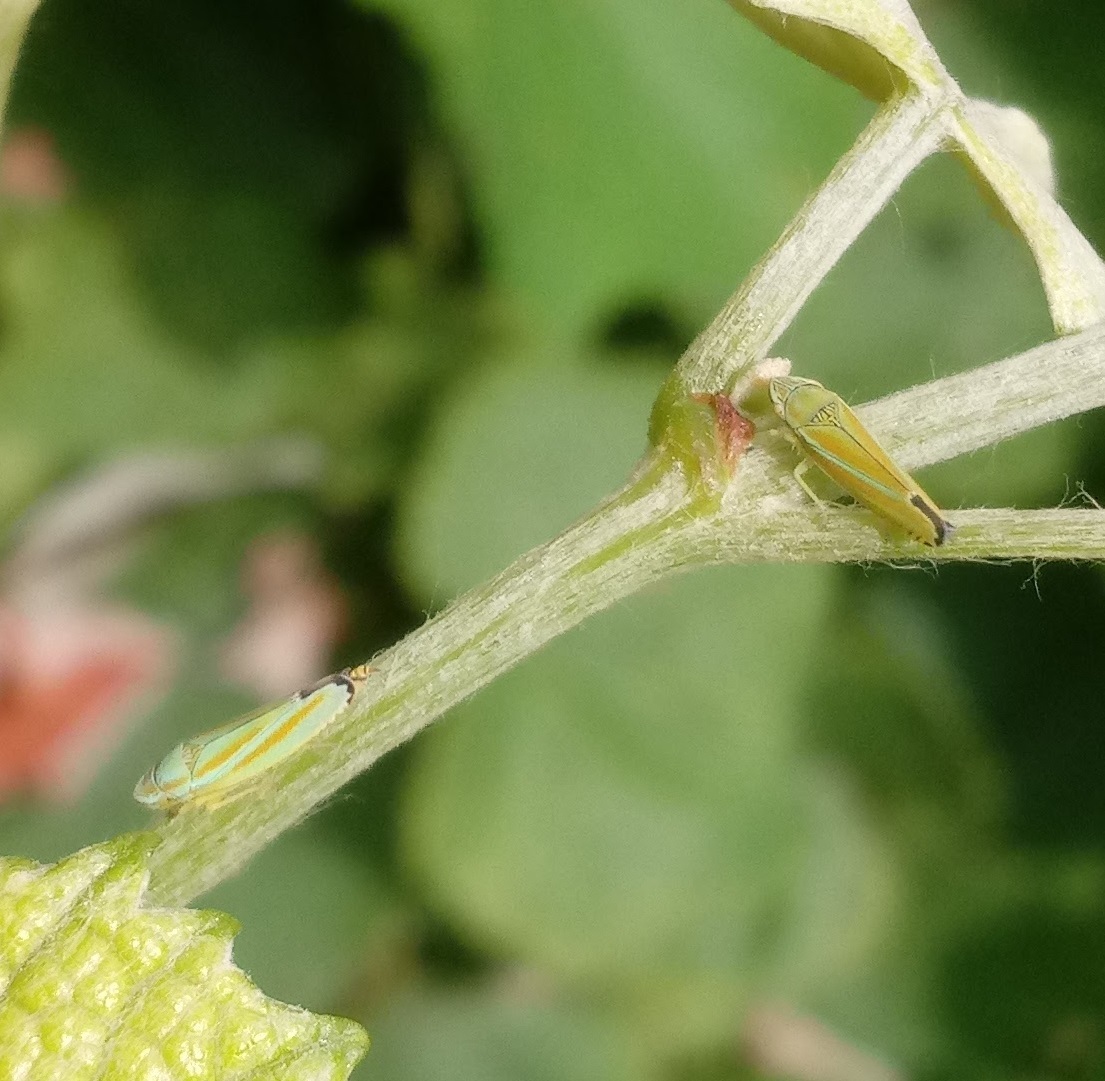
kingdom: Animalia
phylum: Arthropoda
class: Insecta
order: Hemiptera
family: Cicadellidae
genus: Graphocephala
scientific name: Graphocephala versuta
